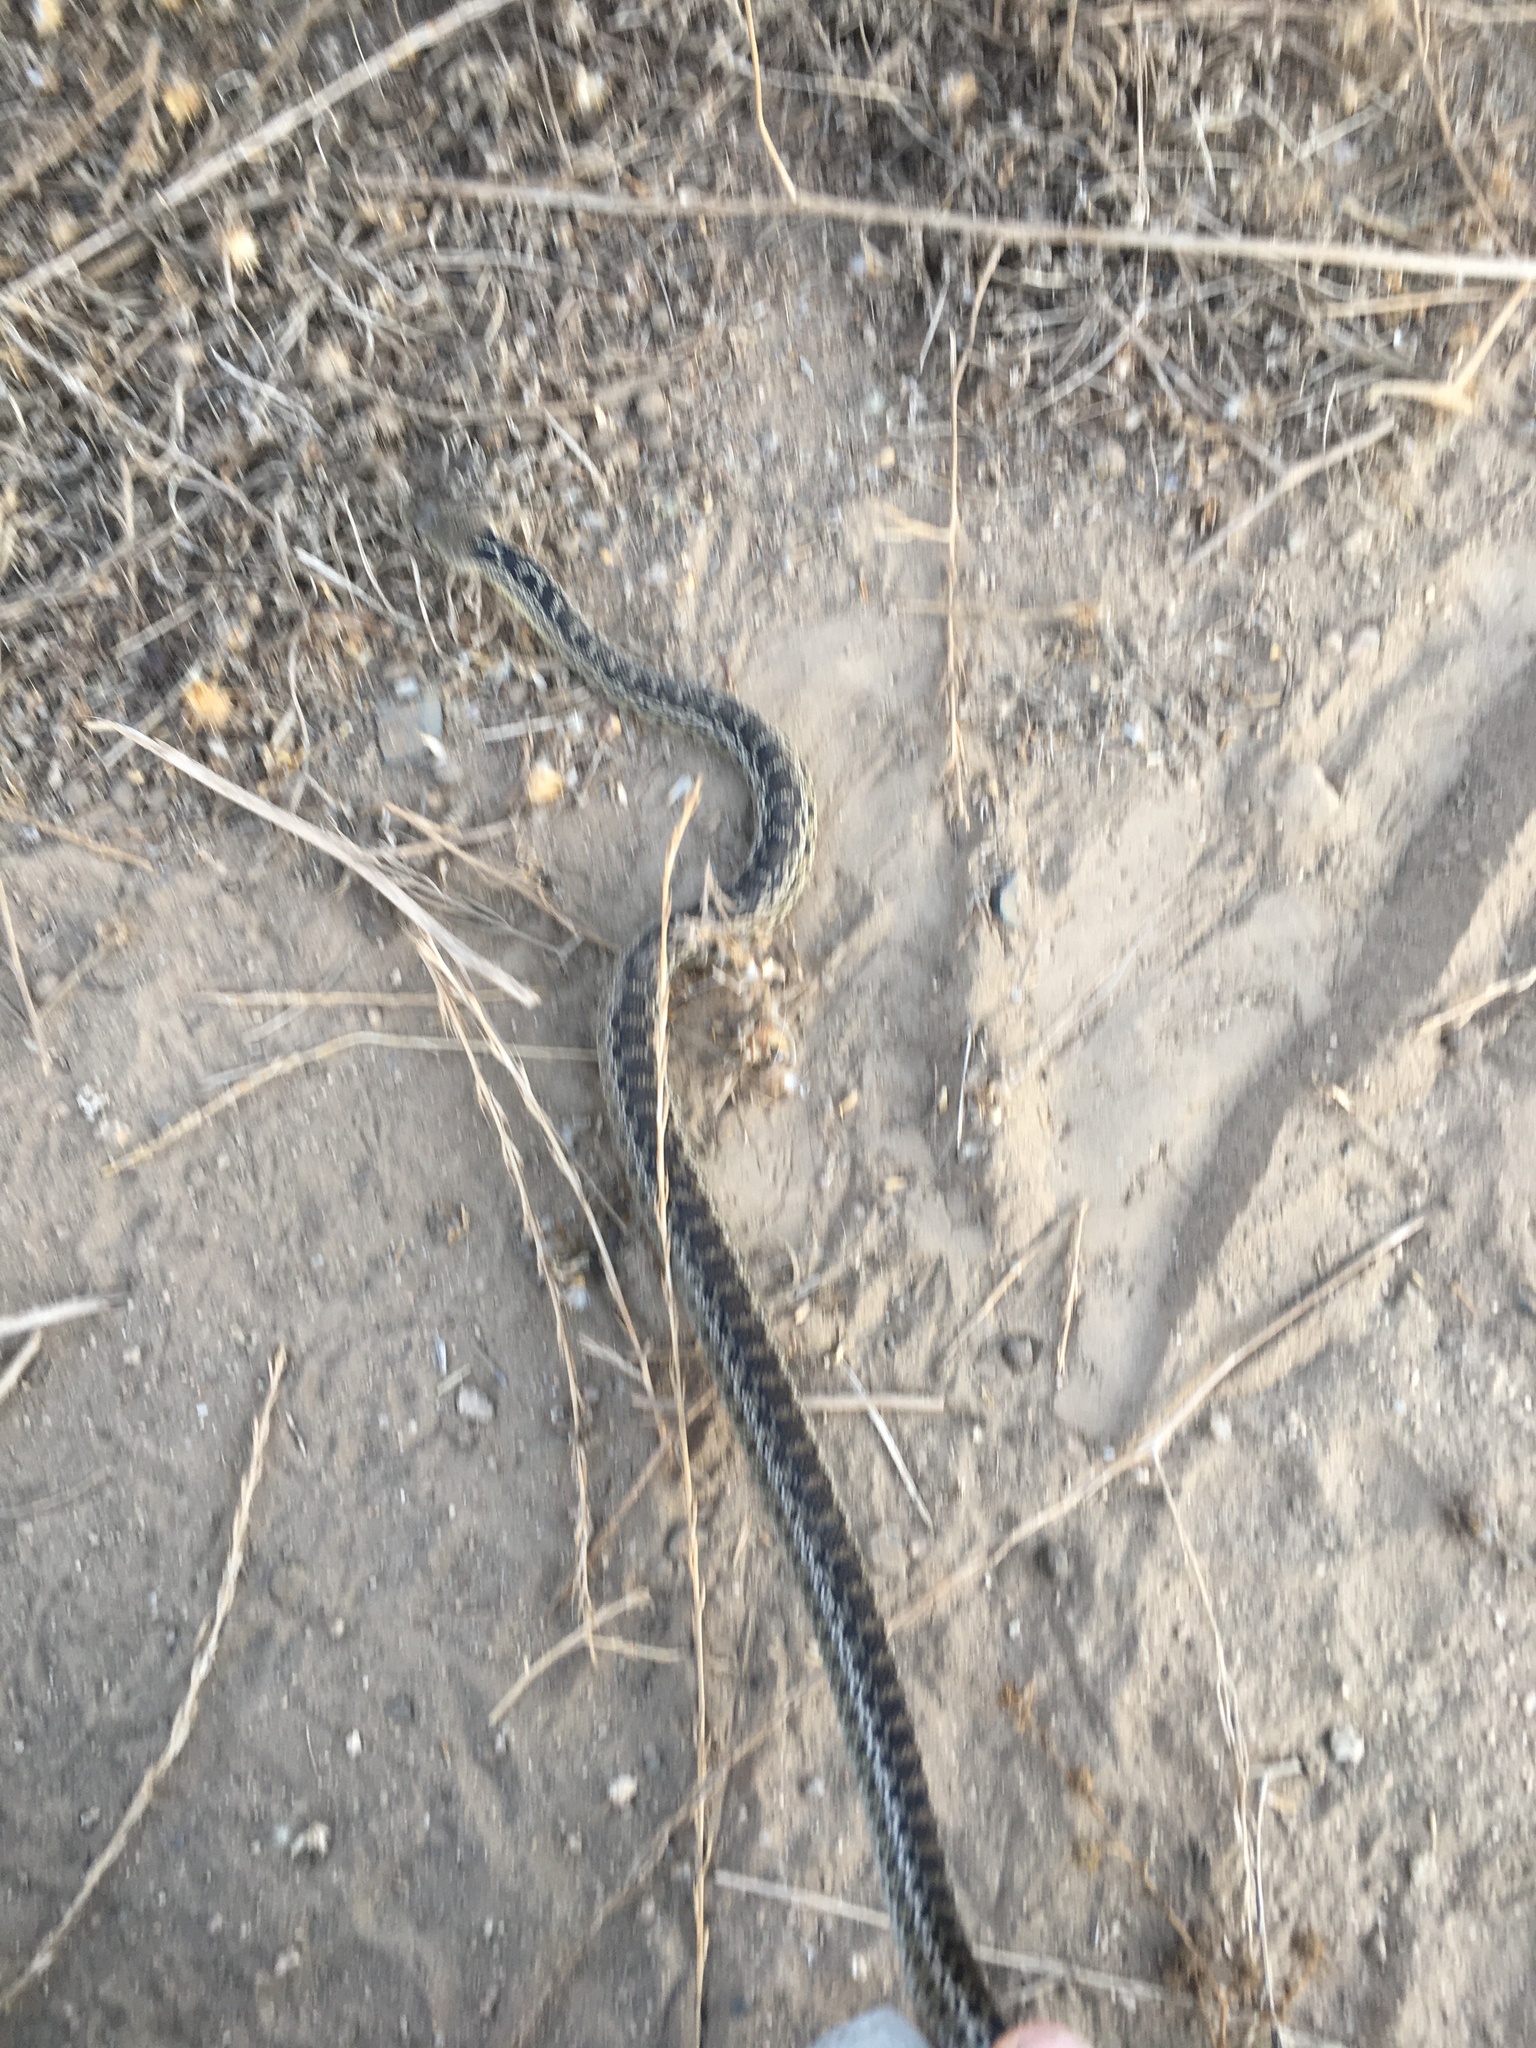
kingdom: Animalia
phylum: Chordata
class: Squamata
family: Colubridae
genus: Pituophis
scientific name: Pituophis catenifer
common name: Gopher snake
